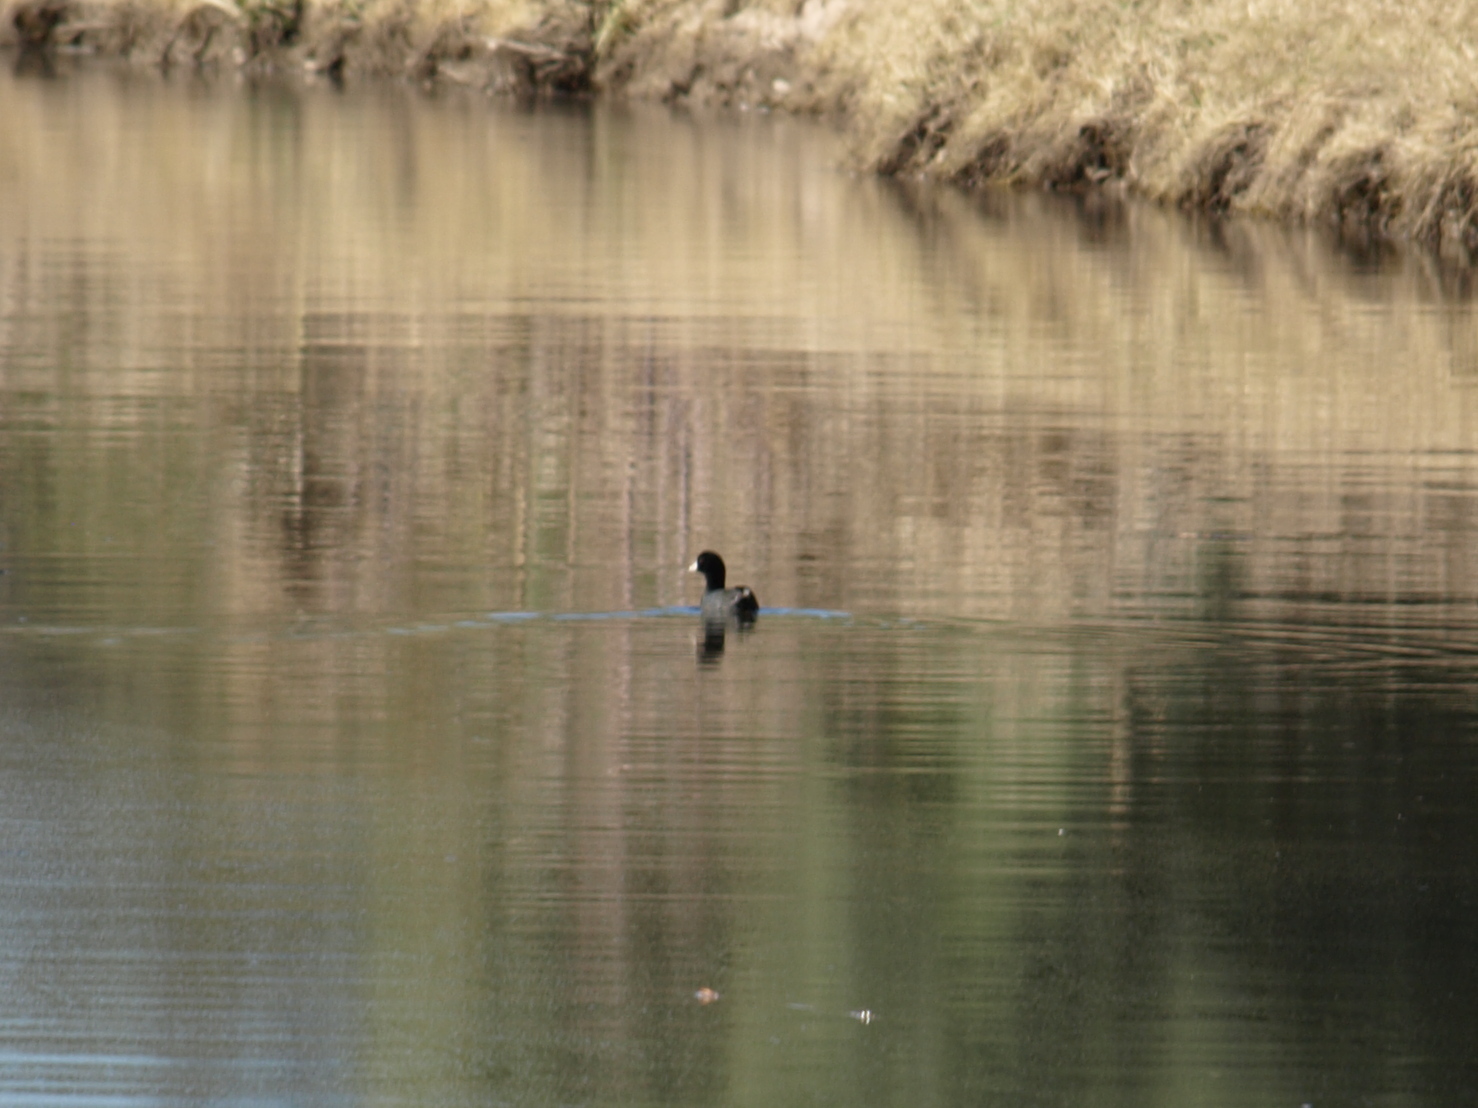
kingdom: Animalia
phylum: Chordata
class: Aves
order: Gruiformes
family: Rallidae
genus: Fulica
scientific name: Fulica americana
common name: American coot
